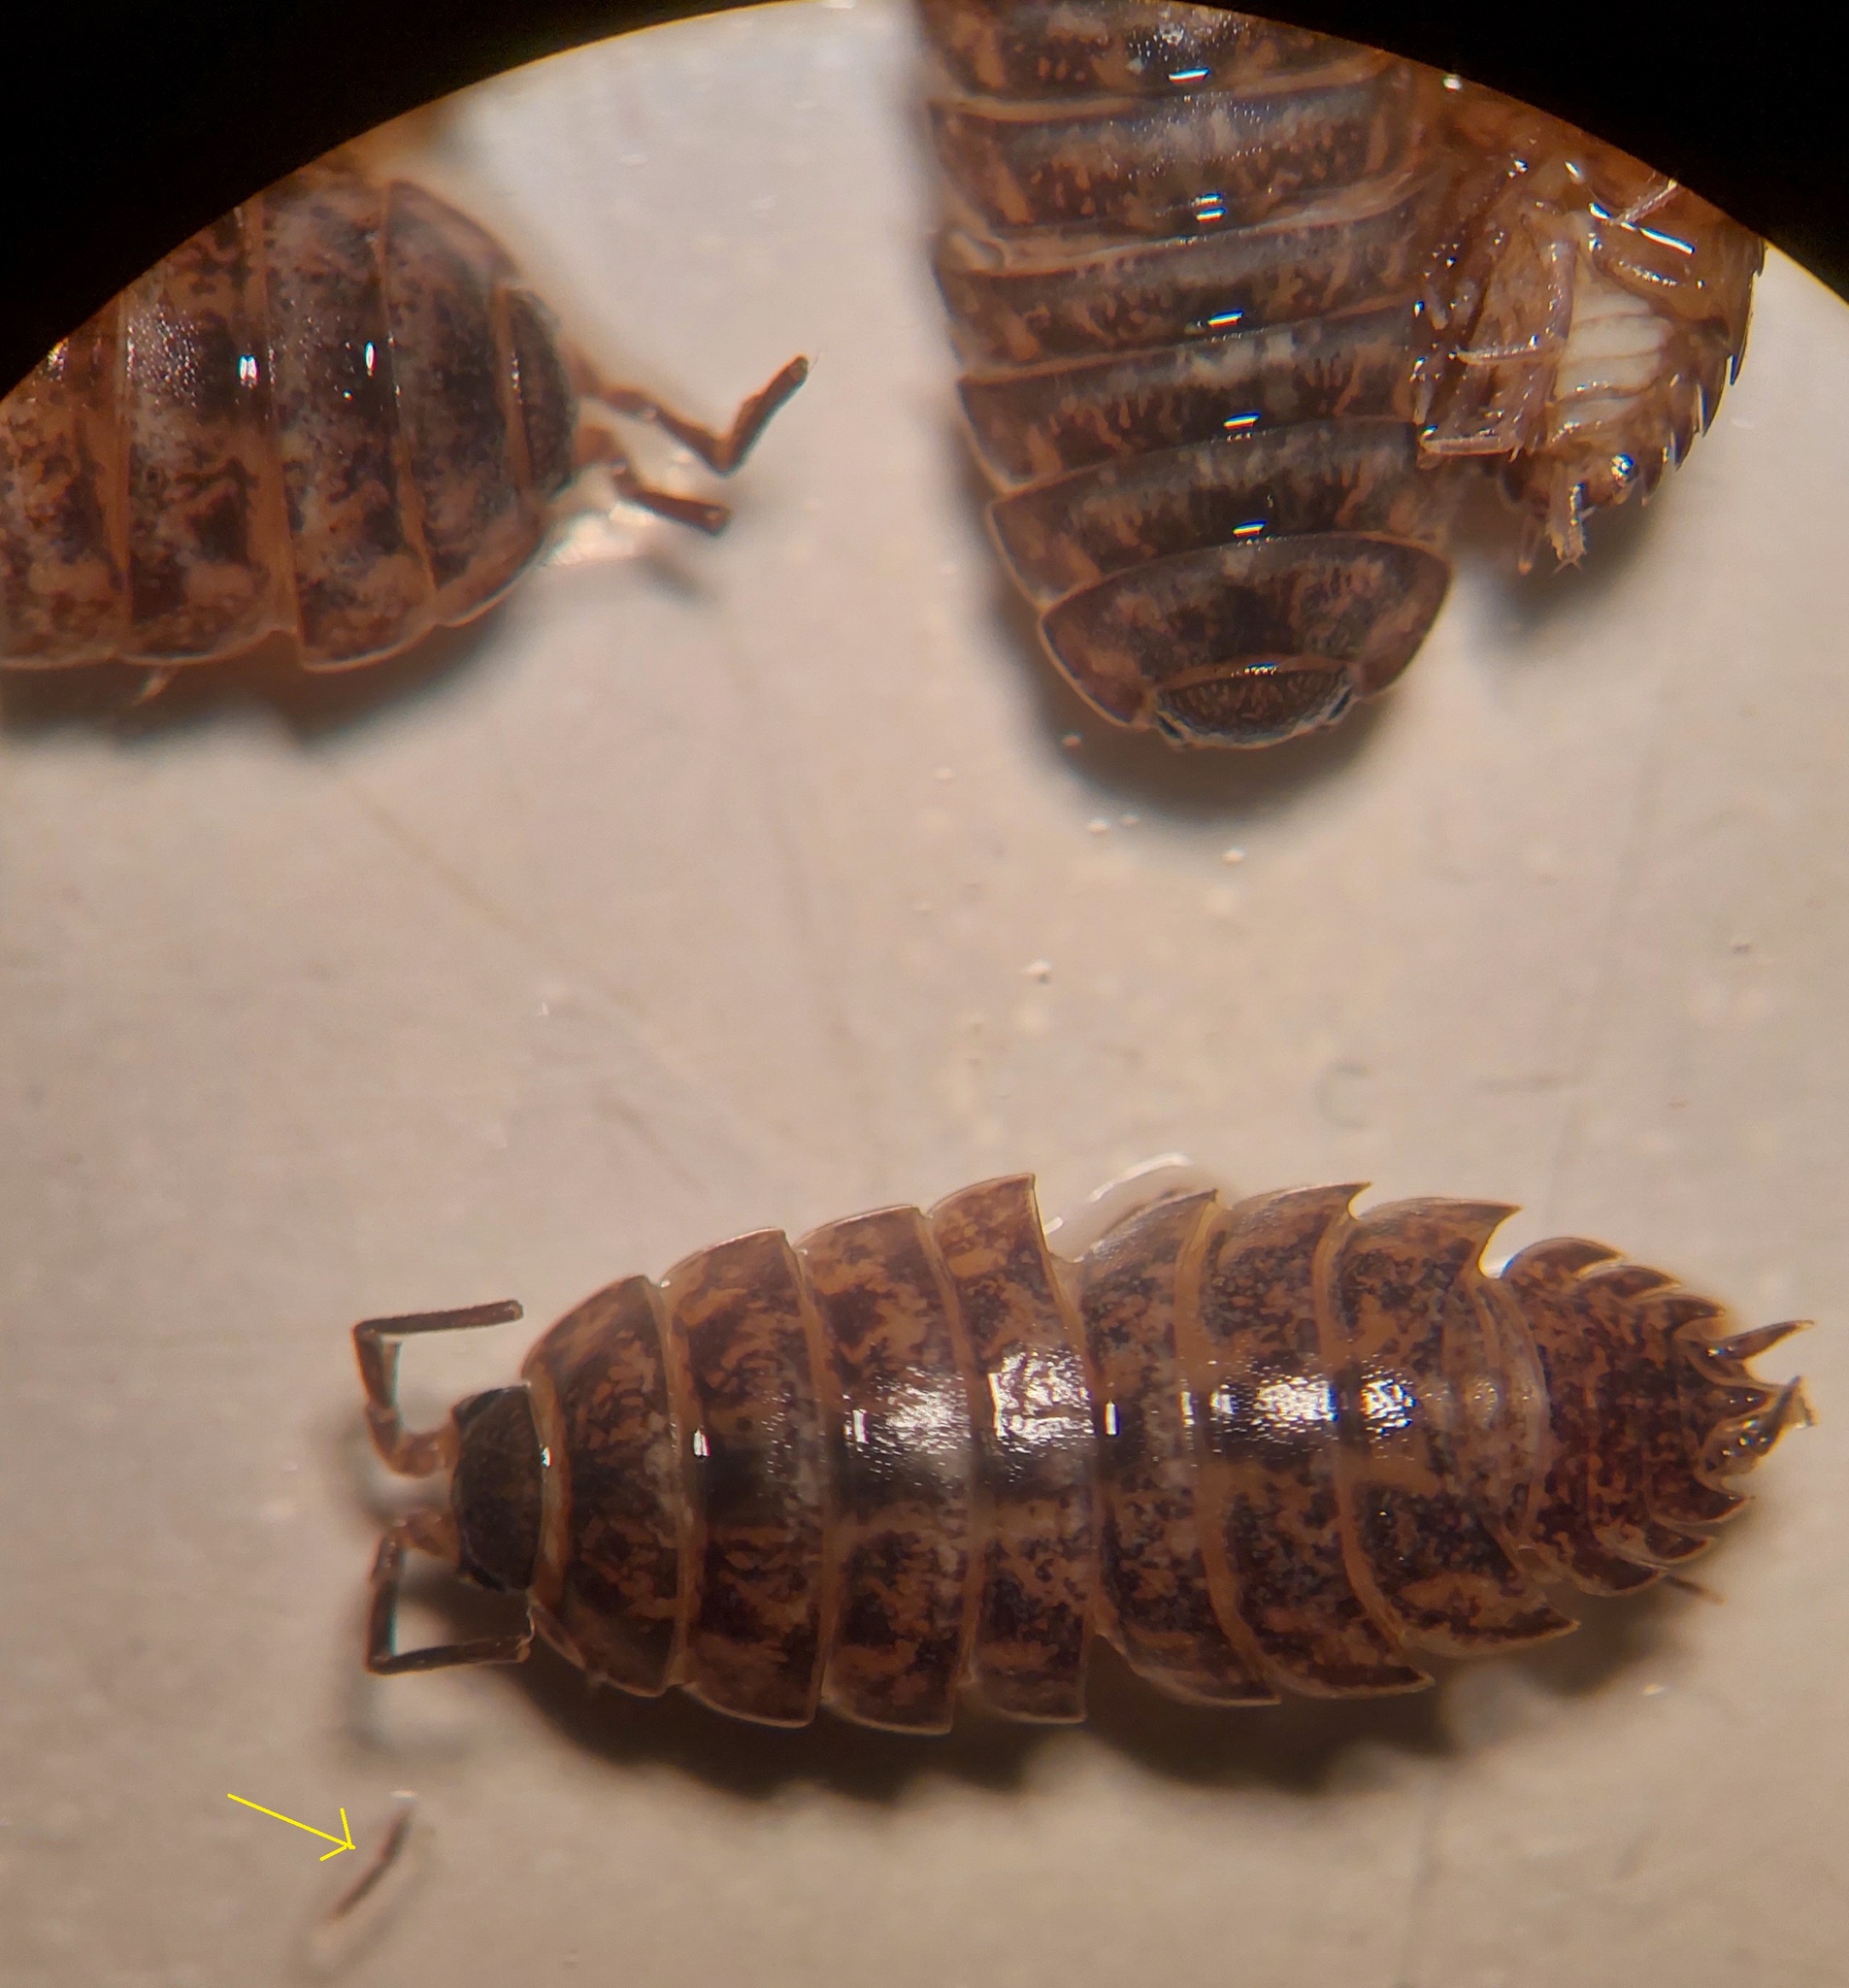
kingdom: Animalia
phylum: Arthropoda
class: Malacostraca
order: Isopoda
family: Agnaridae
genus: Protracheoniscus
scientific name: Protracheoniscus politus
